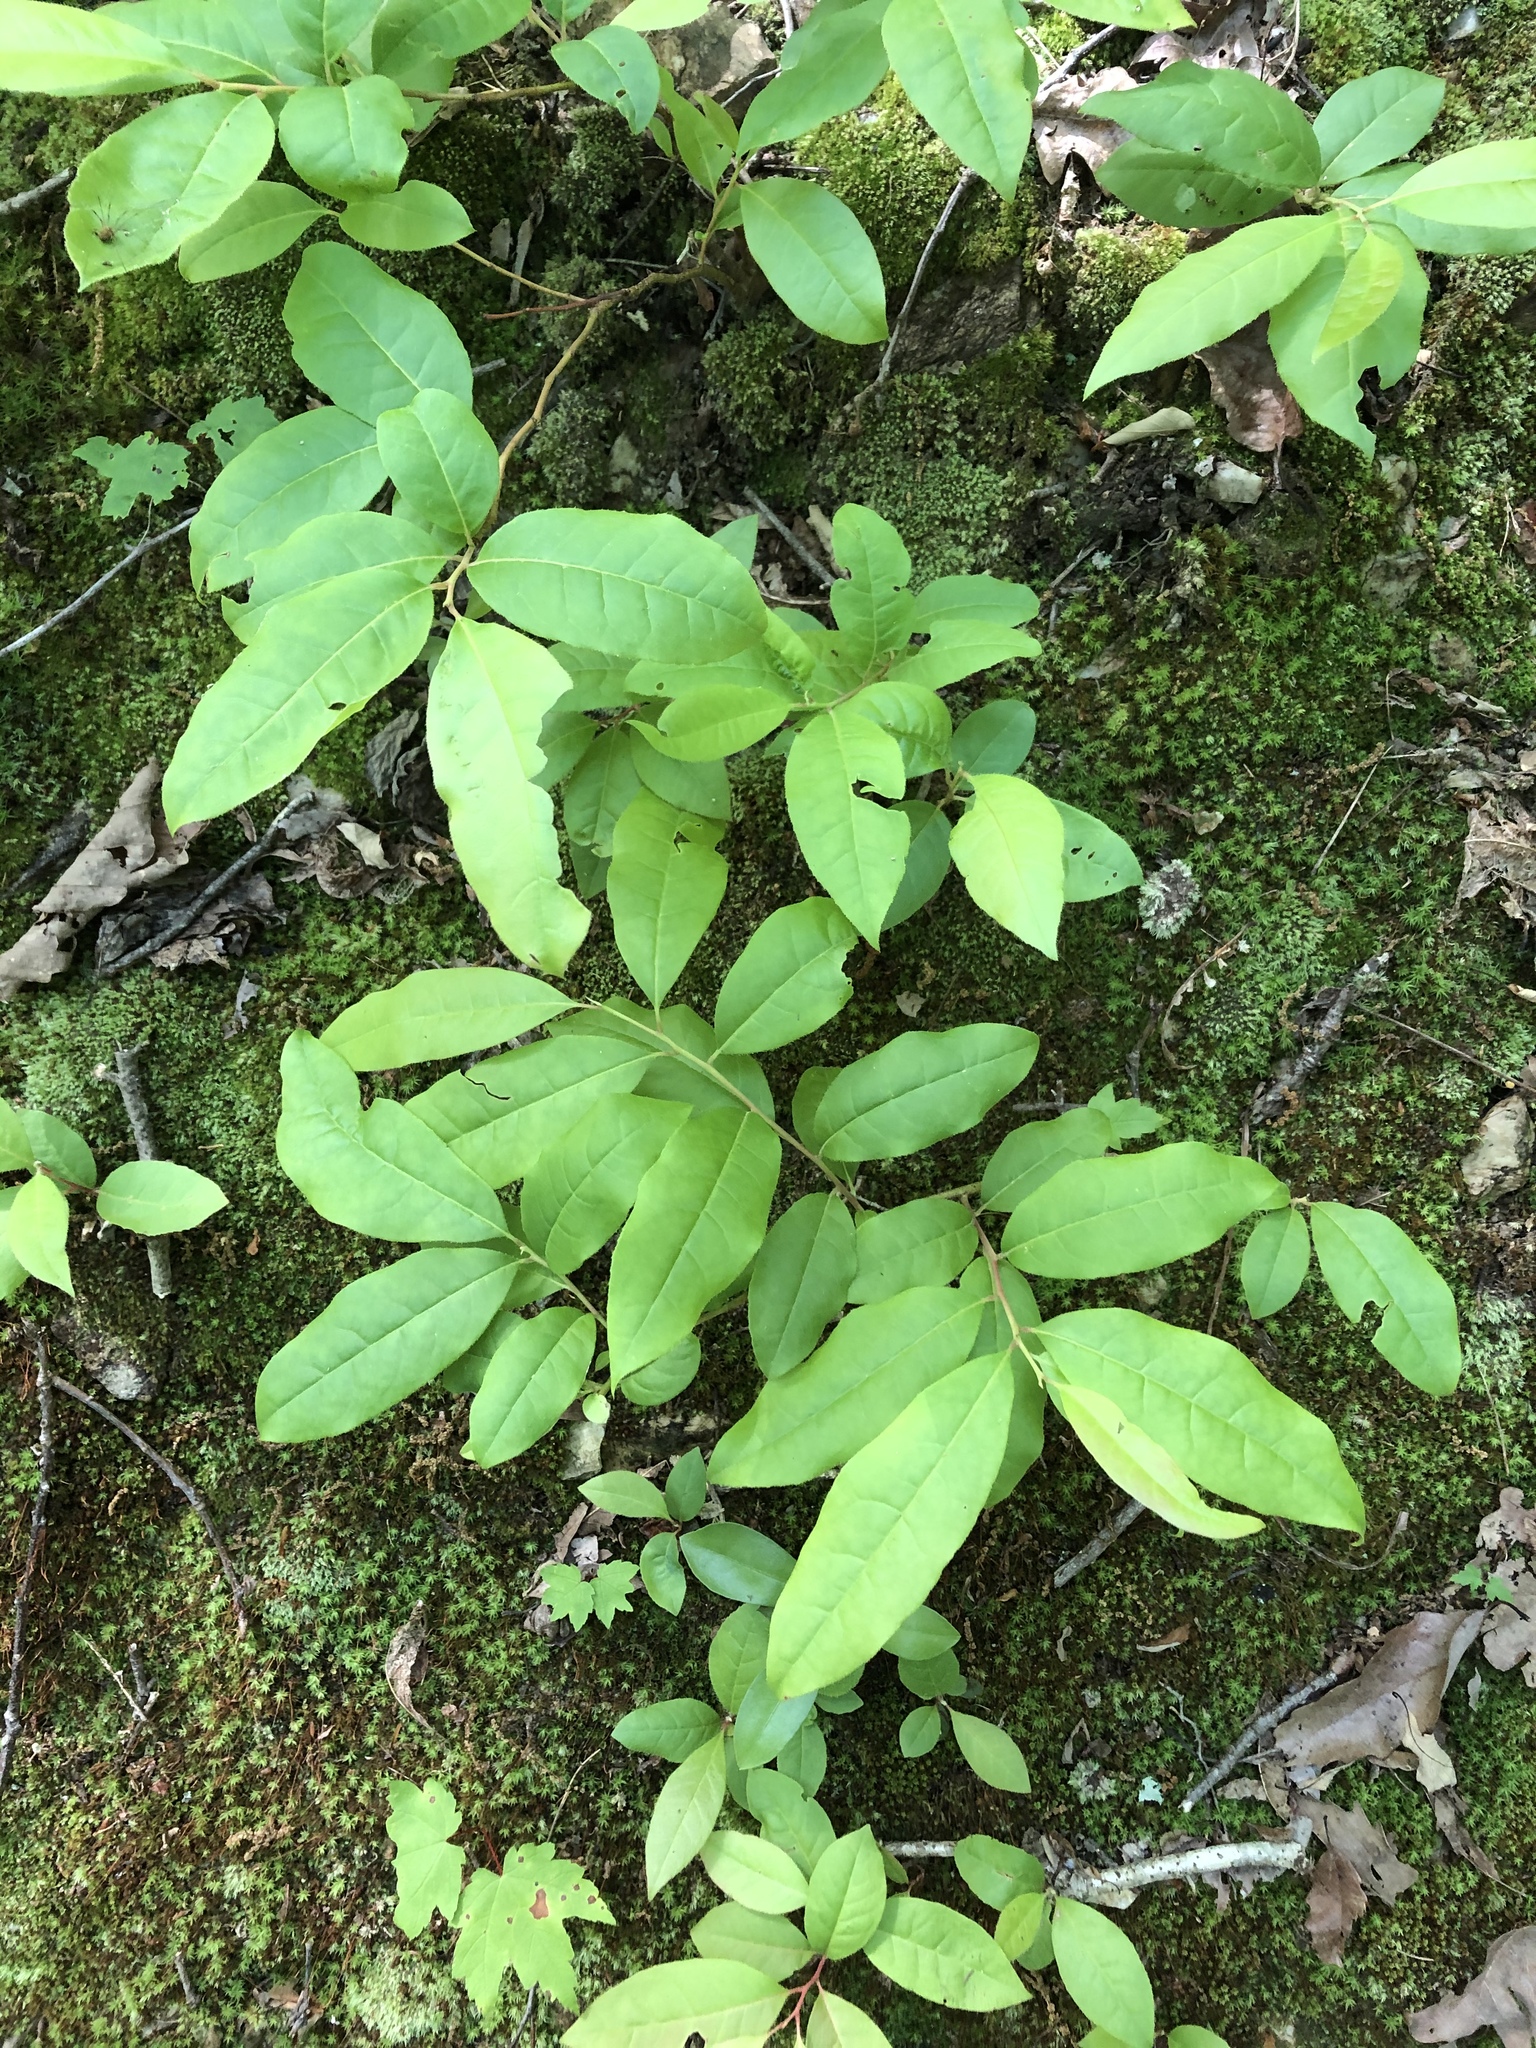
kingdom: Plantae
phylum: Tracheophyta
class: Magnoliopsida
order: Ericales
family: Ericaceae
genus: Oxydendrum
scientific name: Oxydendrum arboreum
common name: Sourwood
